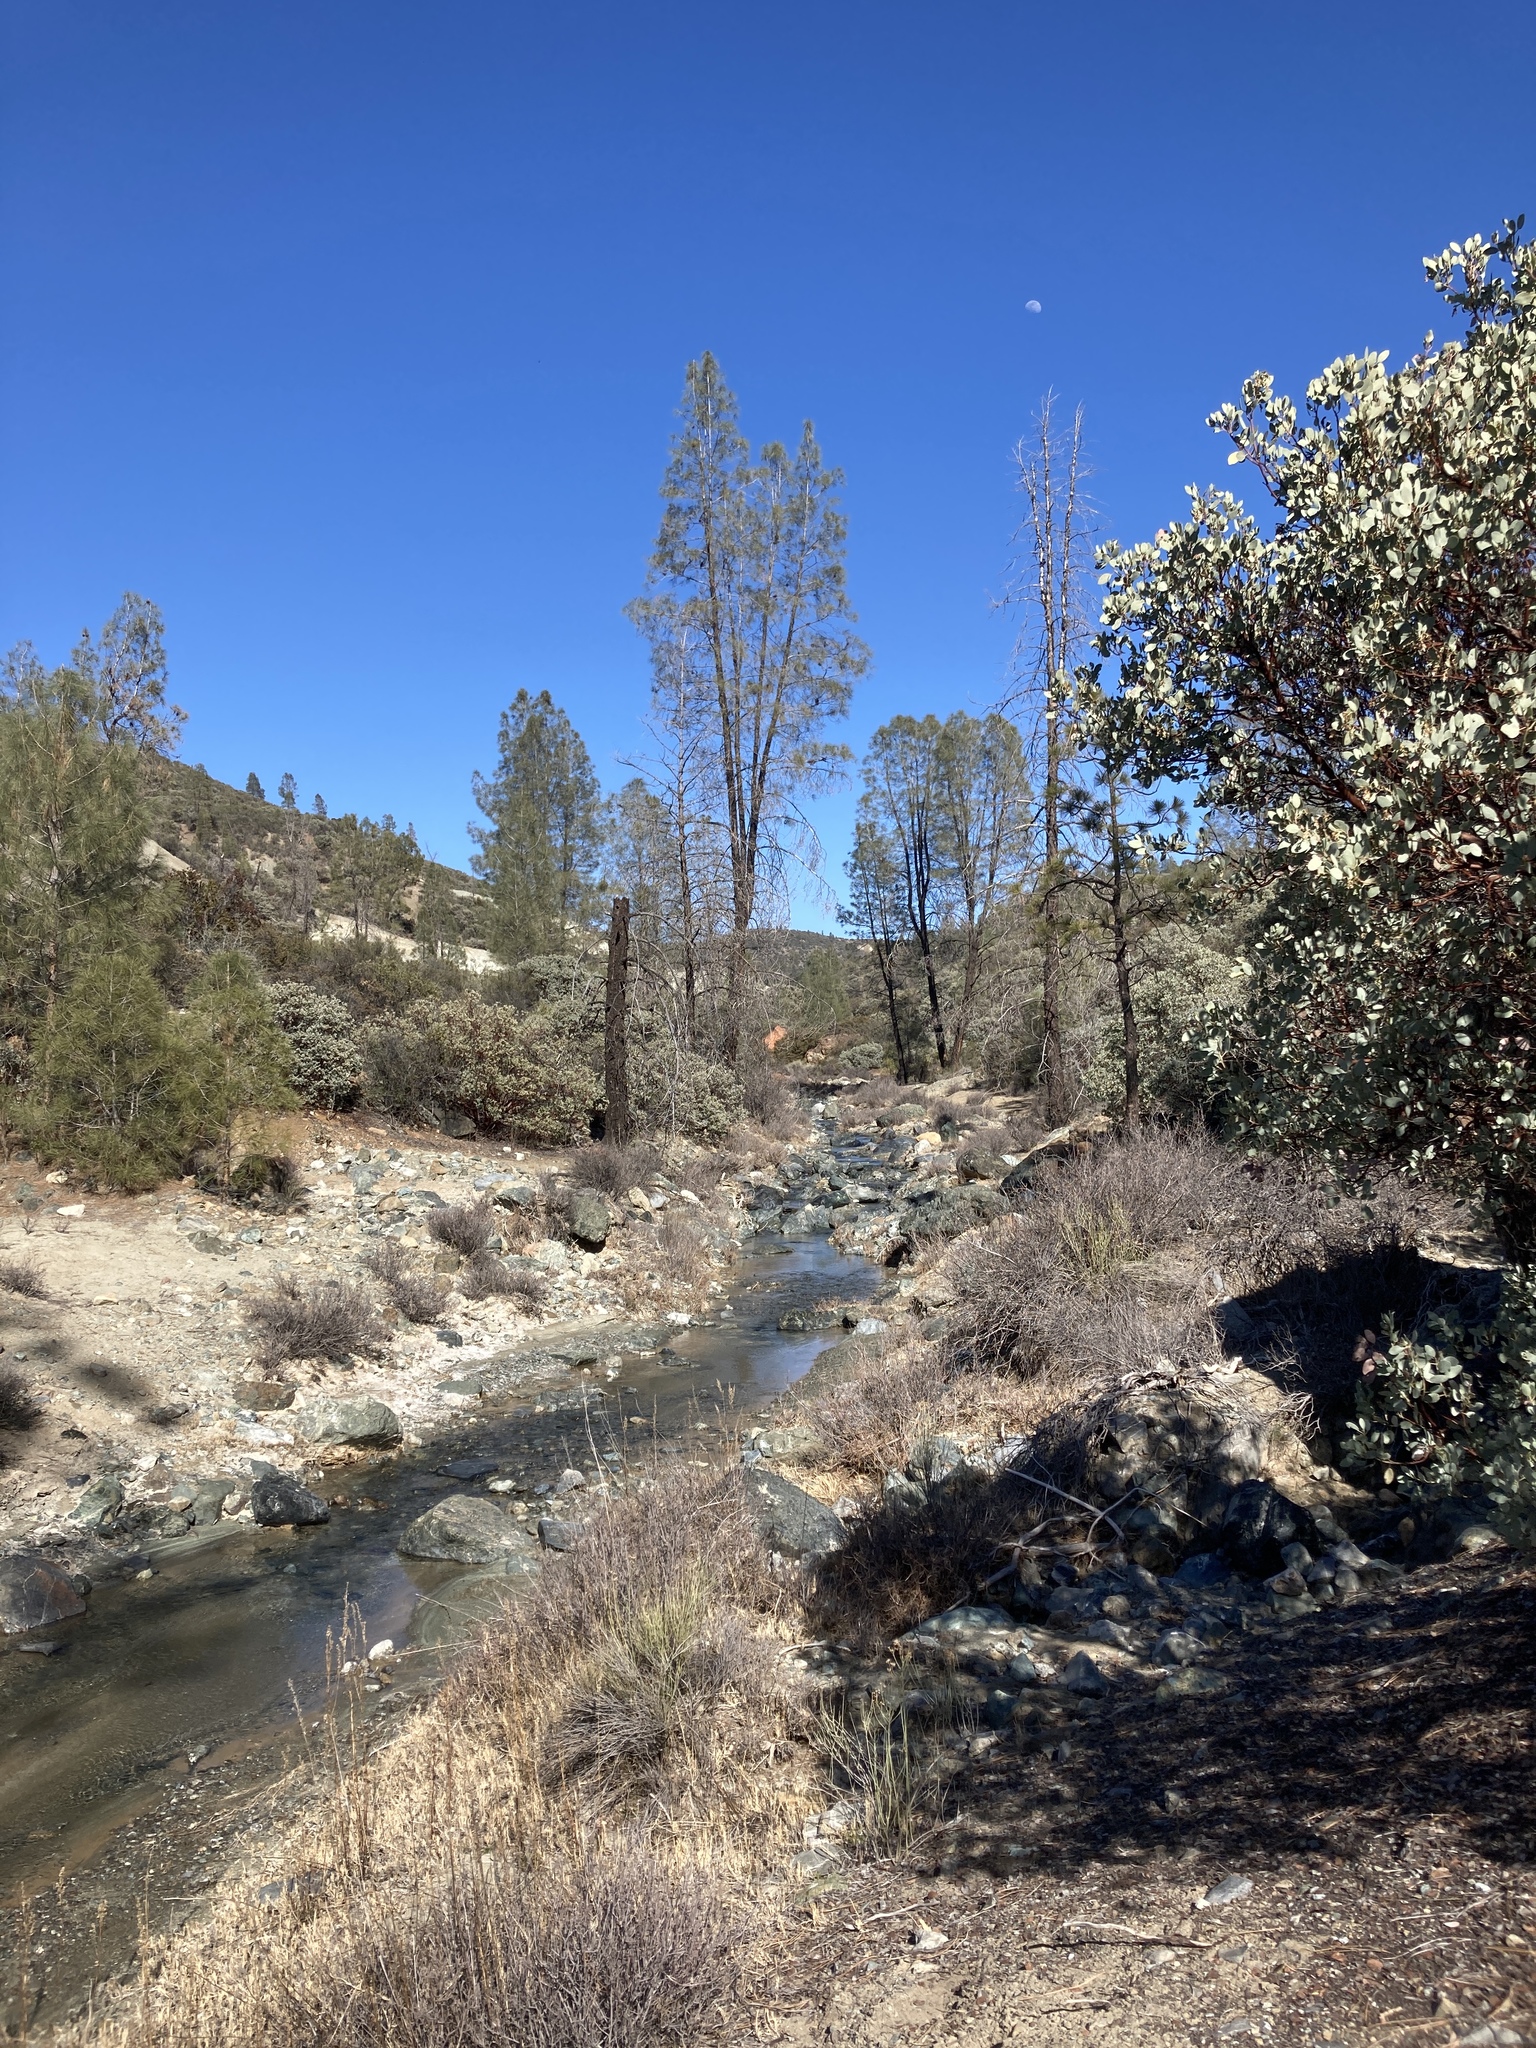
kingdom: Plantae
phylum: Tracheophyta
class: Magnoliopsida
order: Ericales
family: Ericaceae
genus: Arctostaphylos
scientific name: Arctostaphylos glauca
